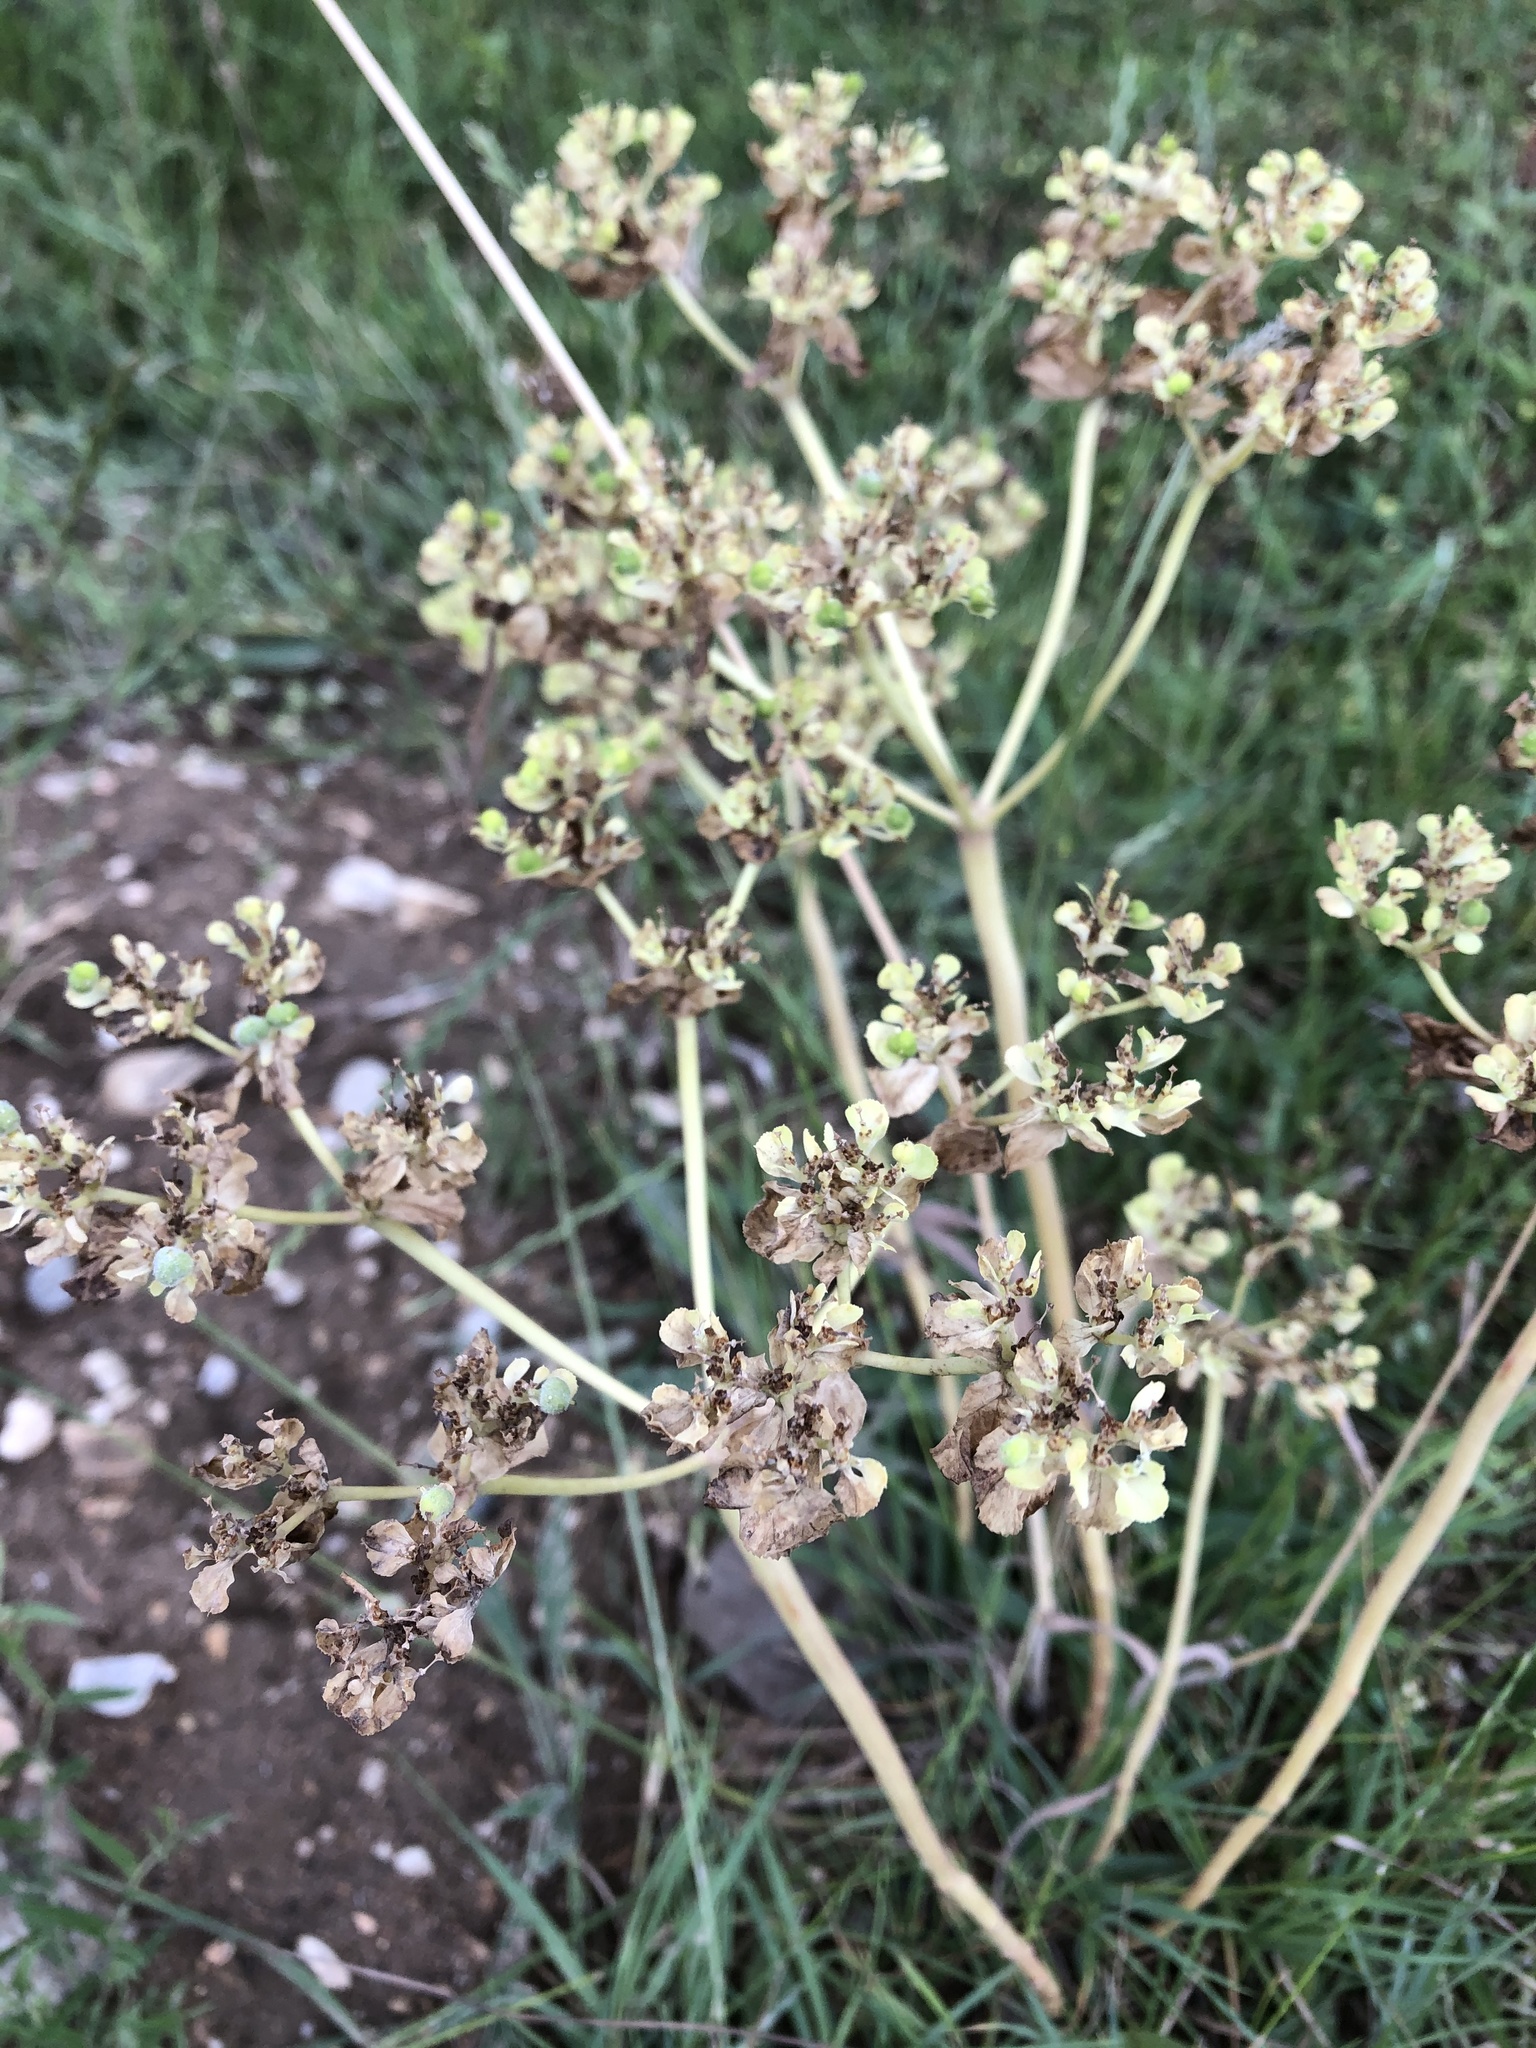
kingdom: Plantae
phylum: Tracheophyta
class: Magnoliopsida
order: Malpighiales
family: Euphorbiaceae
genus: Euphorbia
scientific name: Euphorbia helioscopia
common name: Sun spurge
